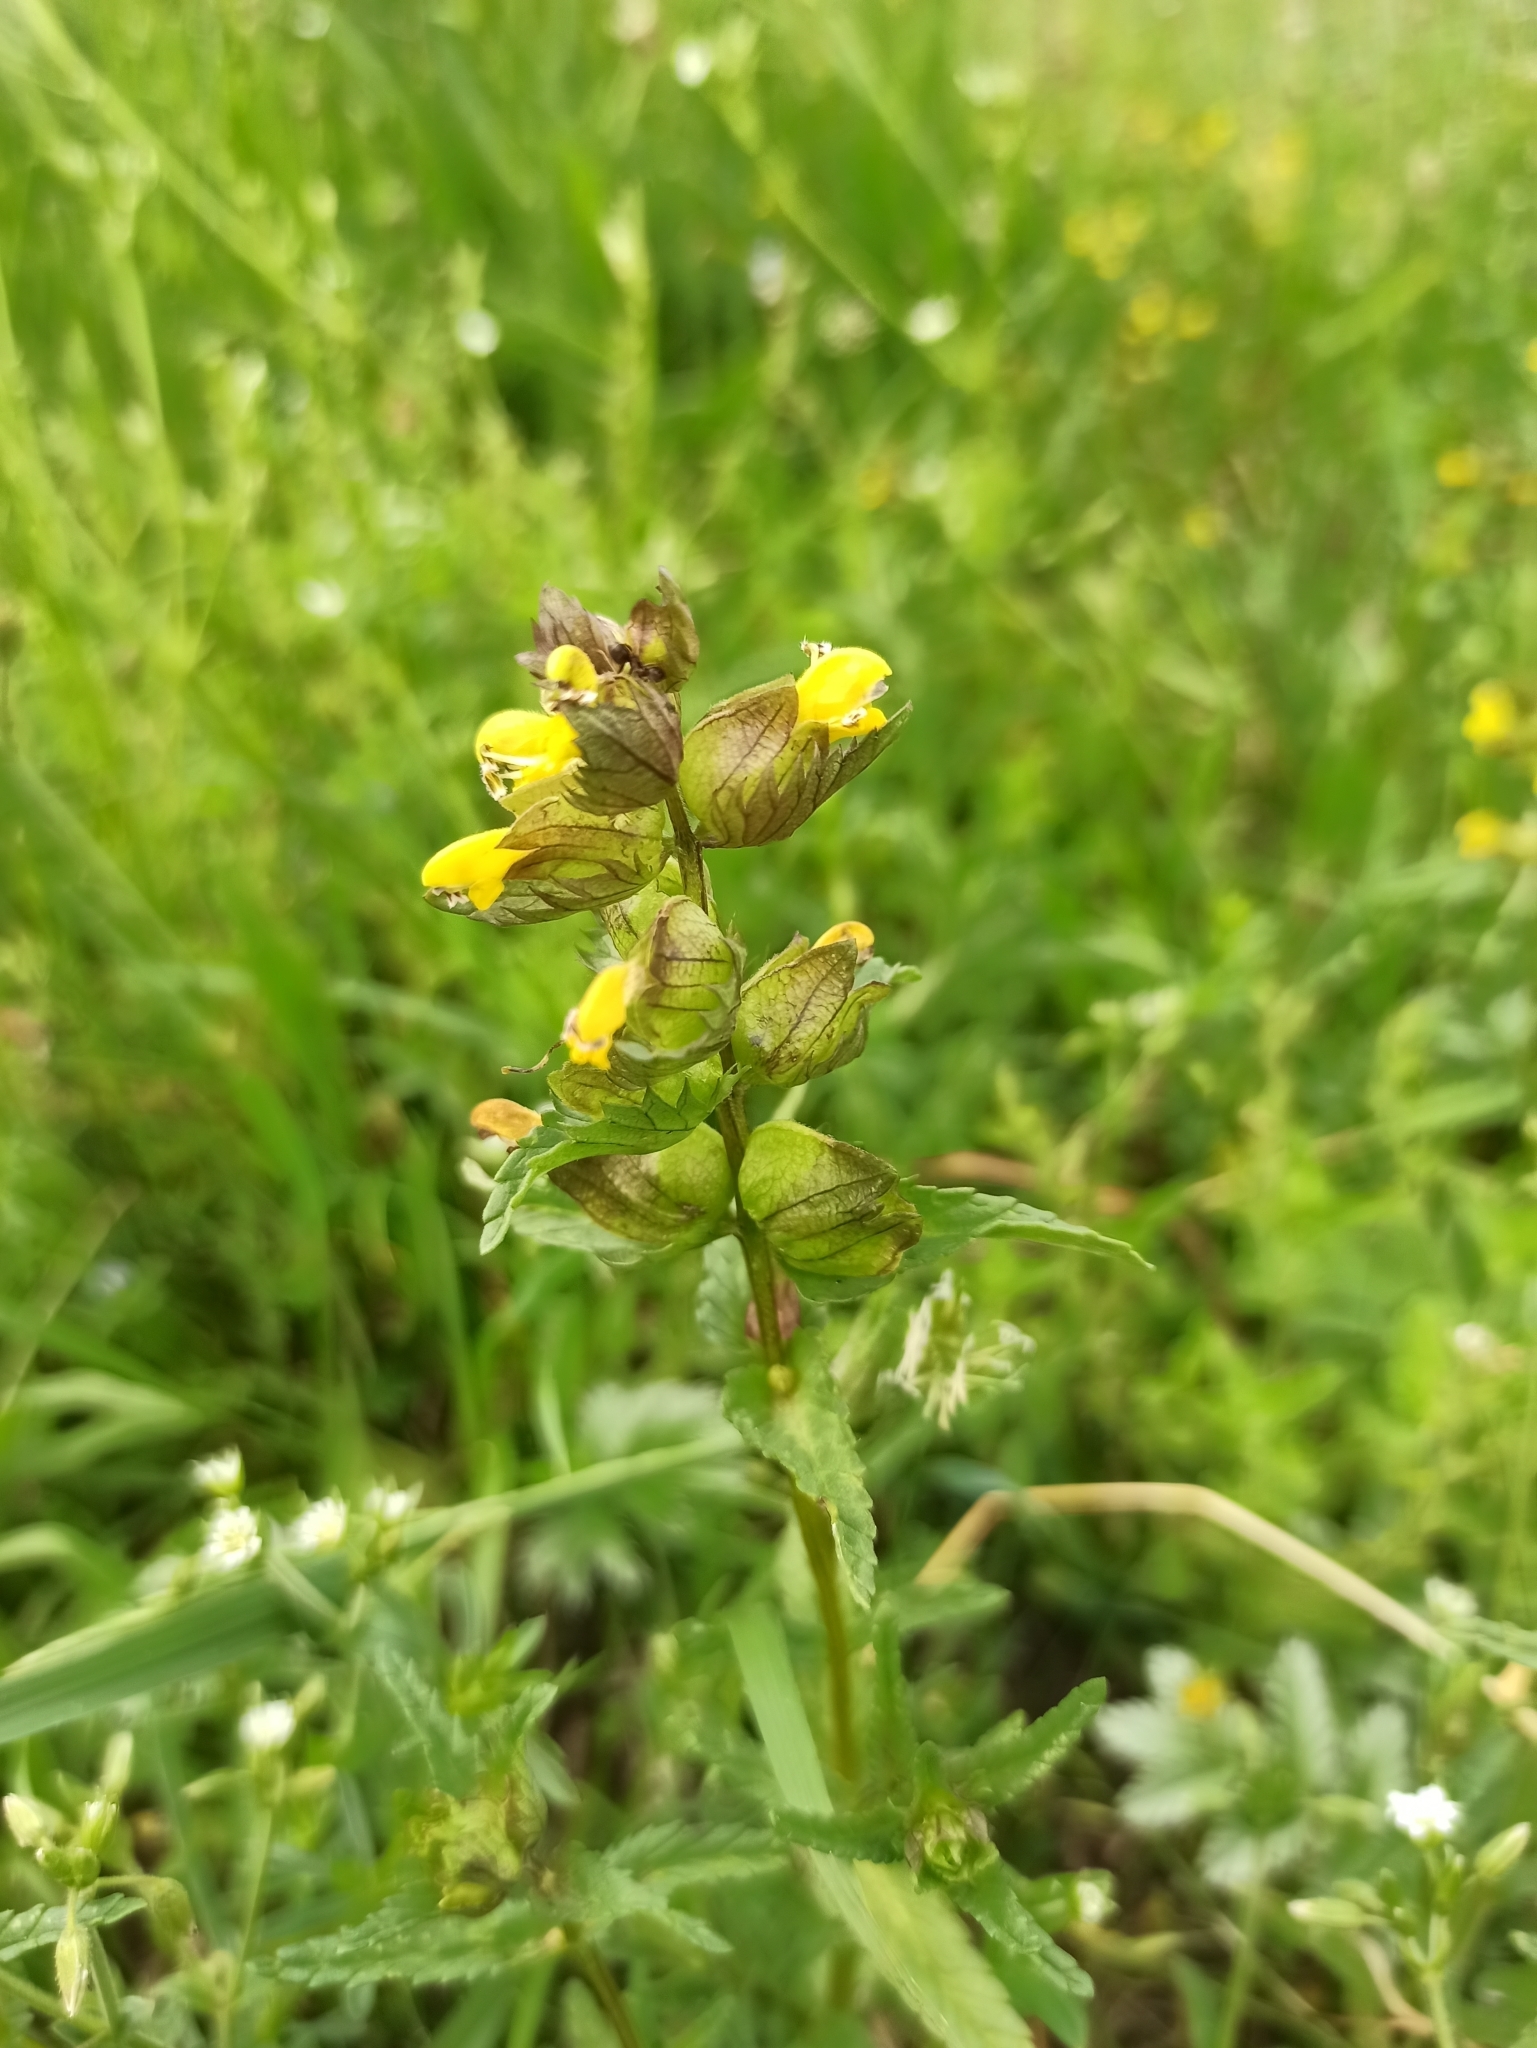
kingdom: Plantae
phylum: Tracheophyta
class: Magnoliopsida
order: Lamiales
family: Orobanchaceae
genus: Rhinanthus
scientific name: Rhinanthus minor
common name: Yellow-rattle
